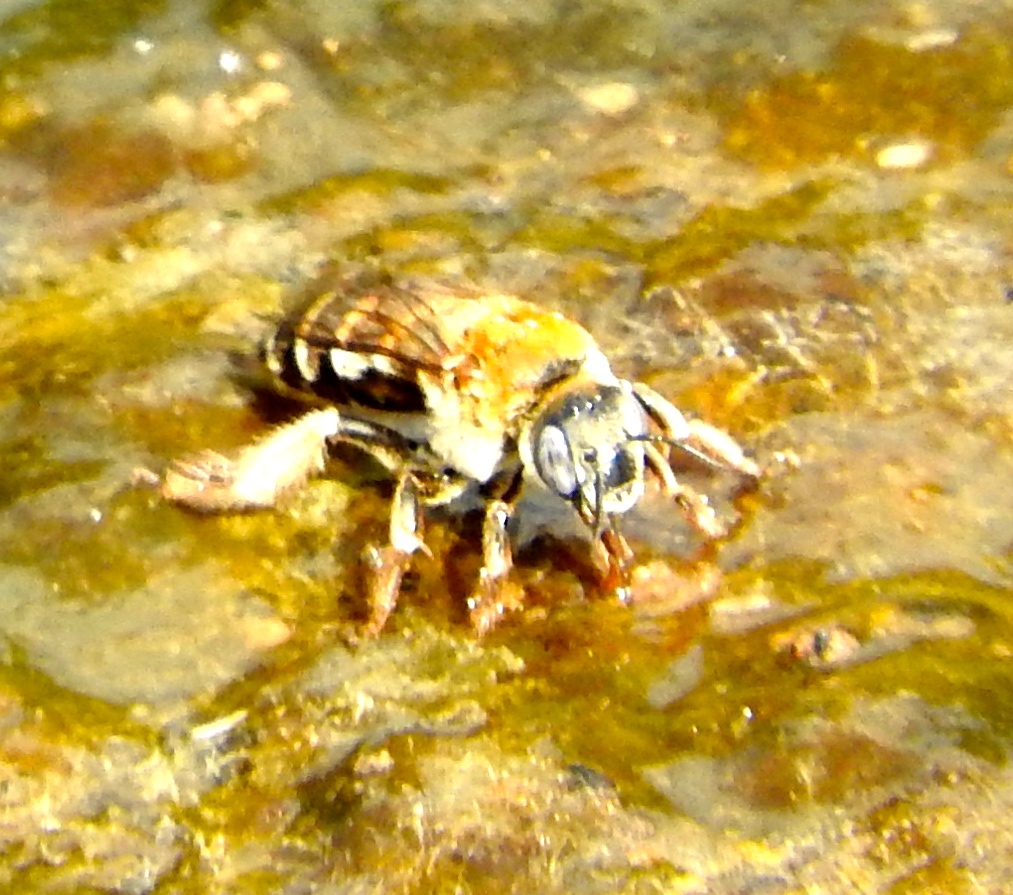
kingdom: Animalia
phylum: Arthropoda
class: Insecta
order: Hymenoptera
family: Apidae
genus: Apidae
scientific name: Apidae
